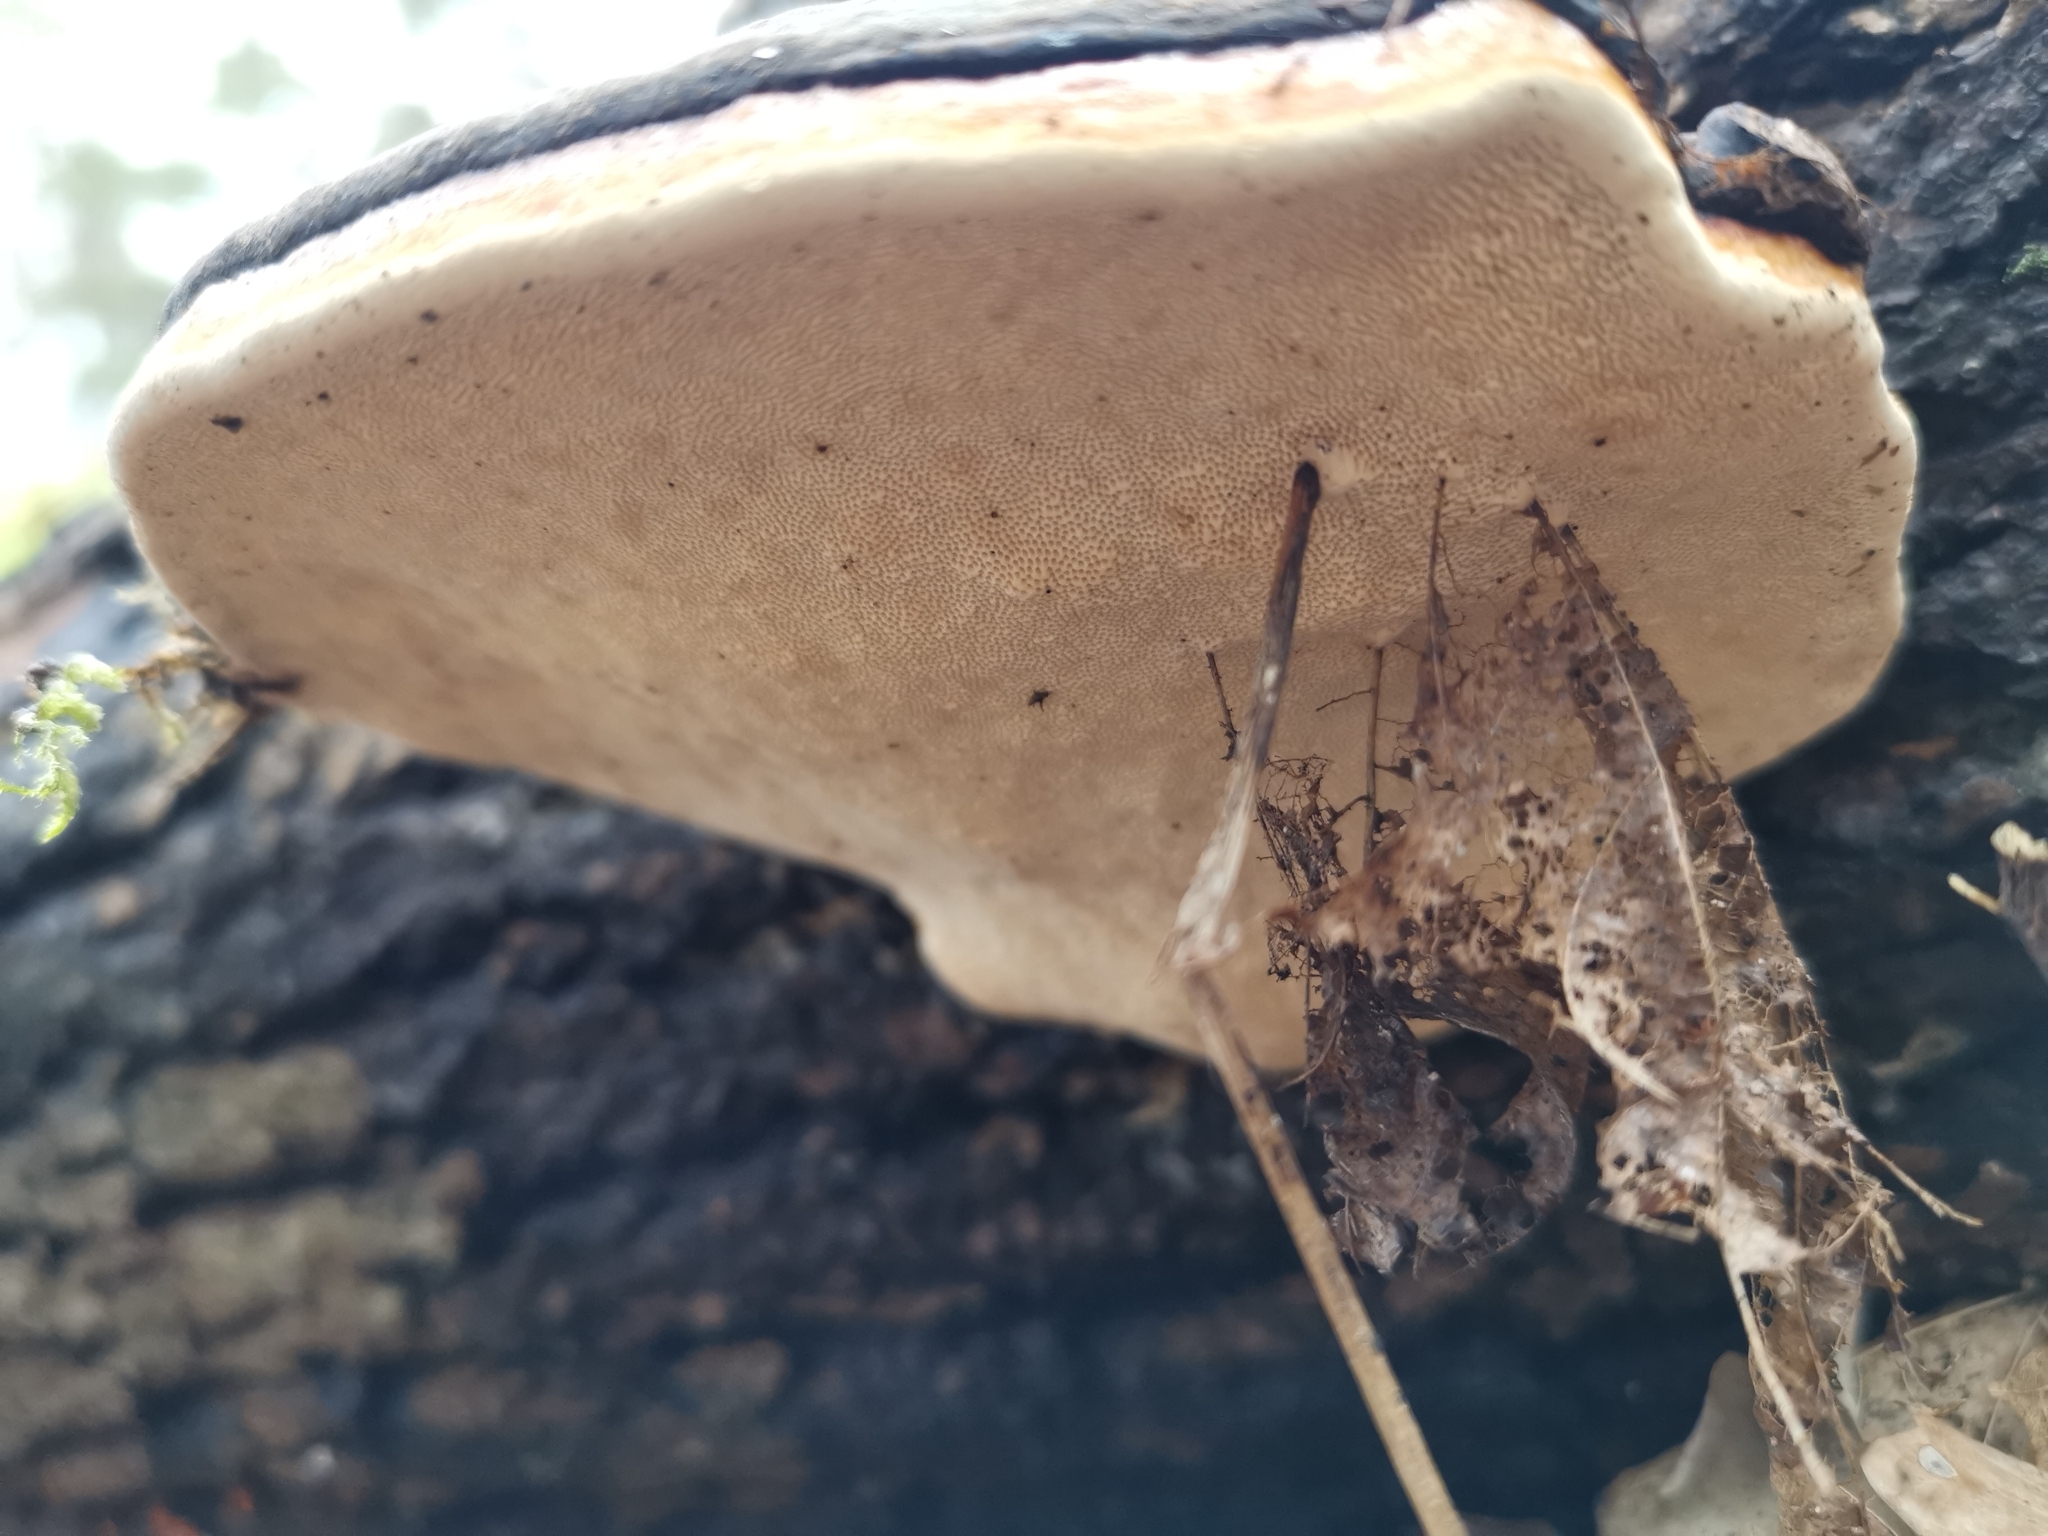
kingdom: Fungi
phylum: Basidiomycota
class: Agaricomycetes
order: Polyporales
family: Fomitopsidaceae
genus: Fomitopsis
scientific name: Fomitopsis pinicola
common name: Red-belted bracket
